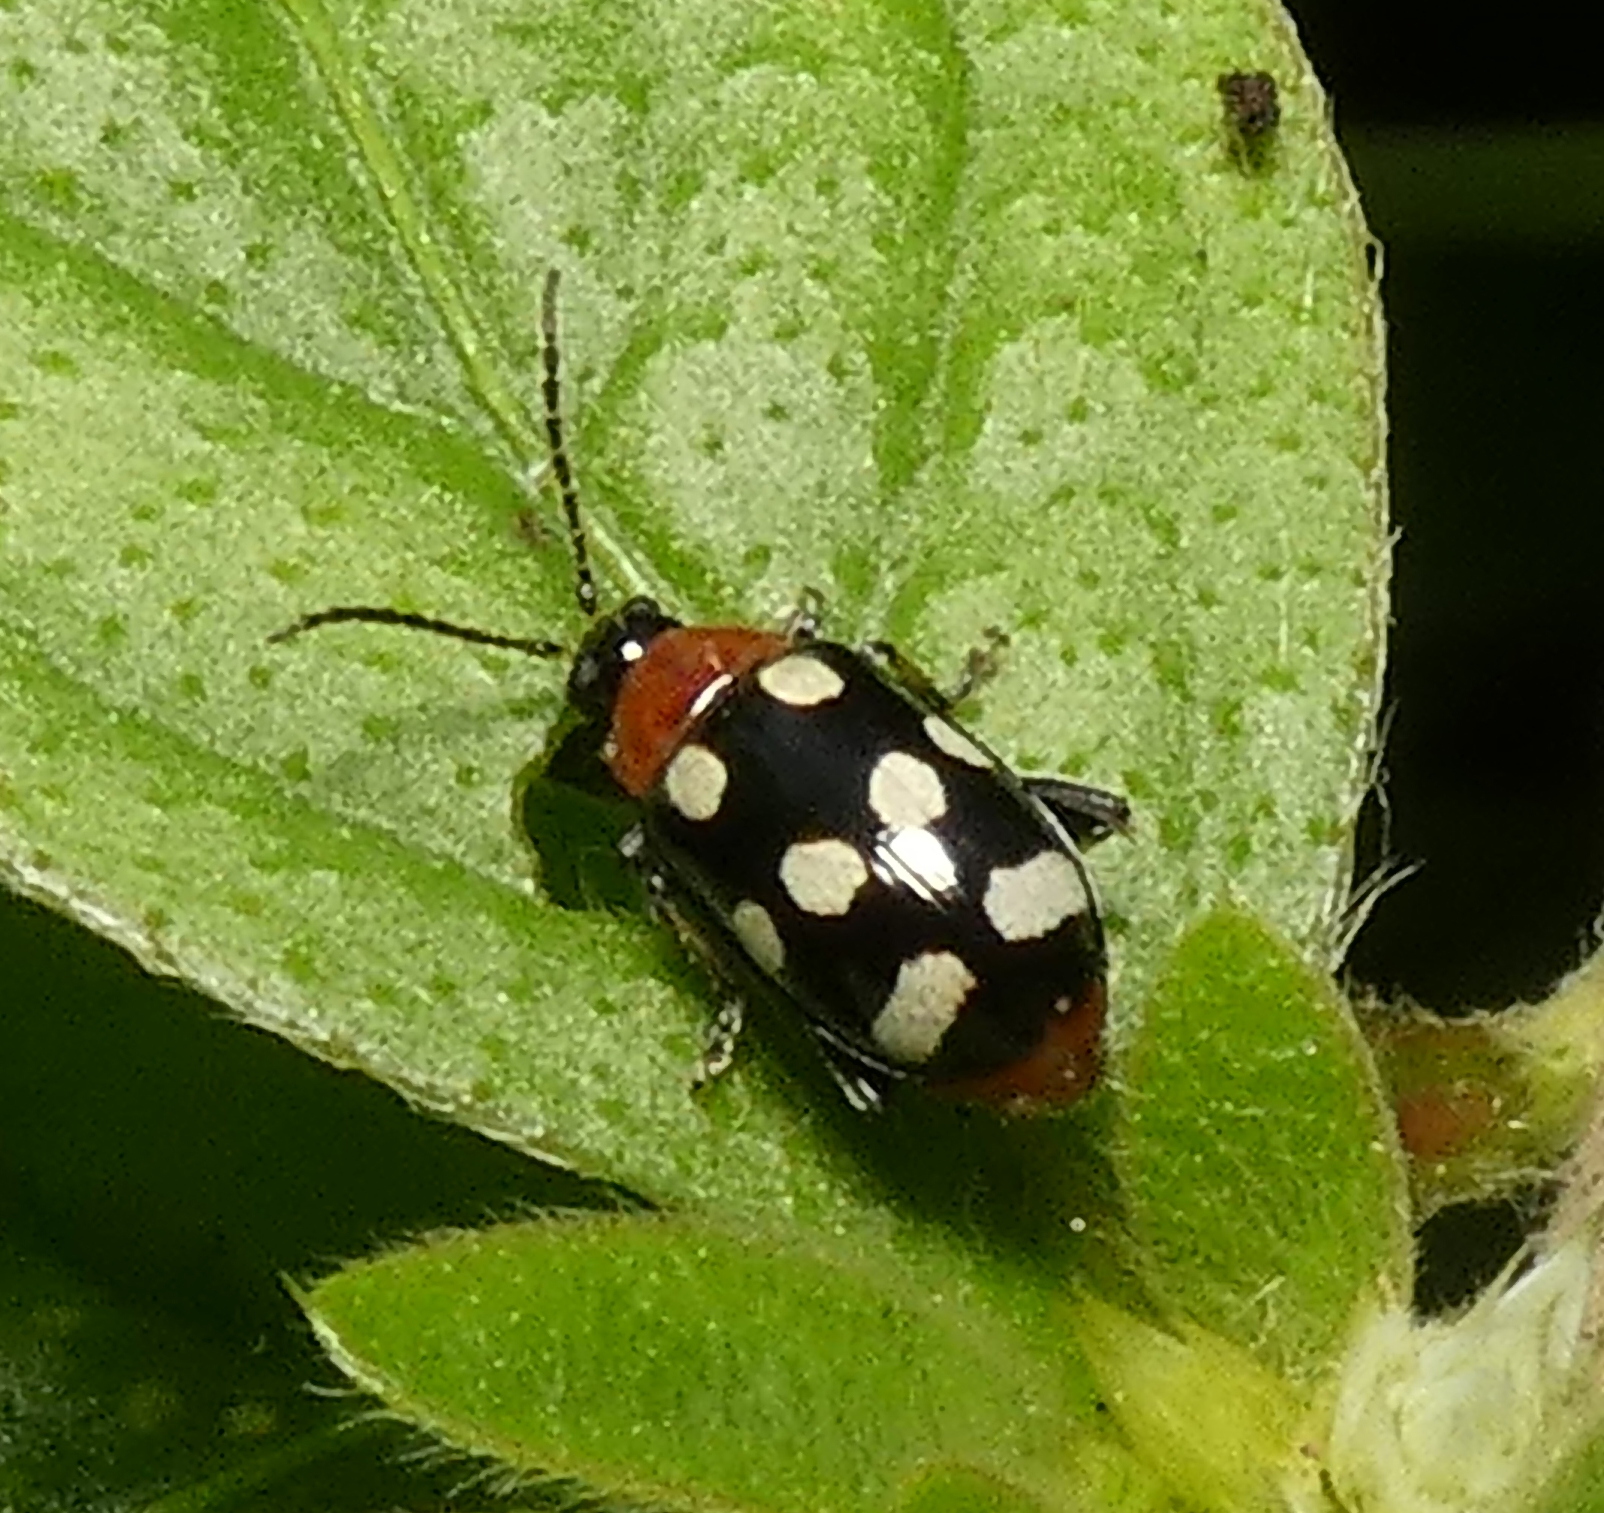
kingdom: Animalia
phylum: Arthropoda
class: Insecta
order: Coleoptera
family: Chrysomelidae
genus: Phenrica
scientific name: Phenrica austriaca
